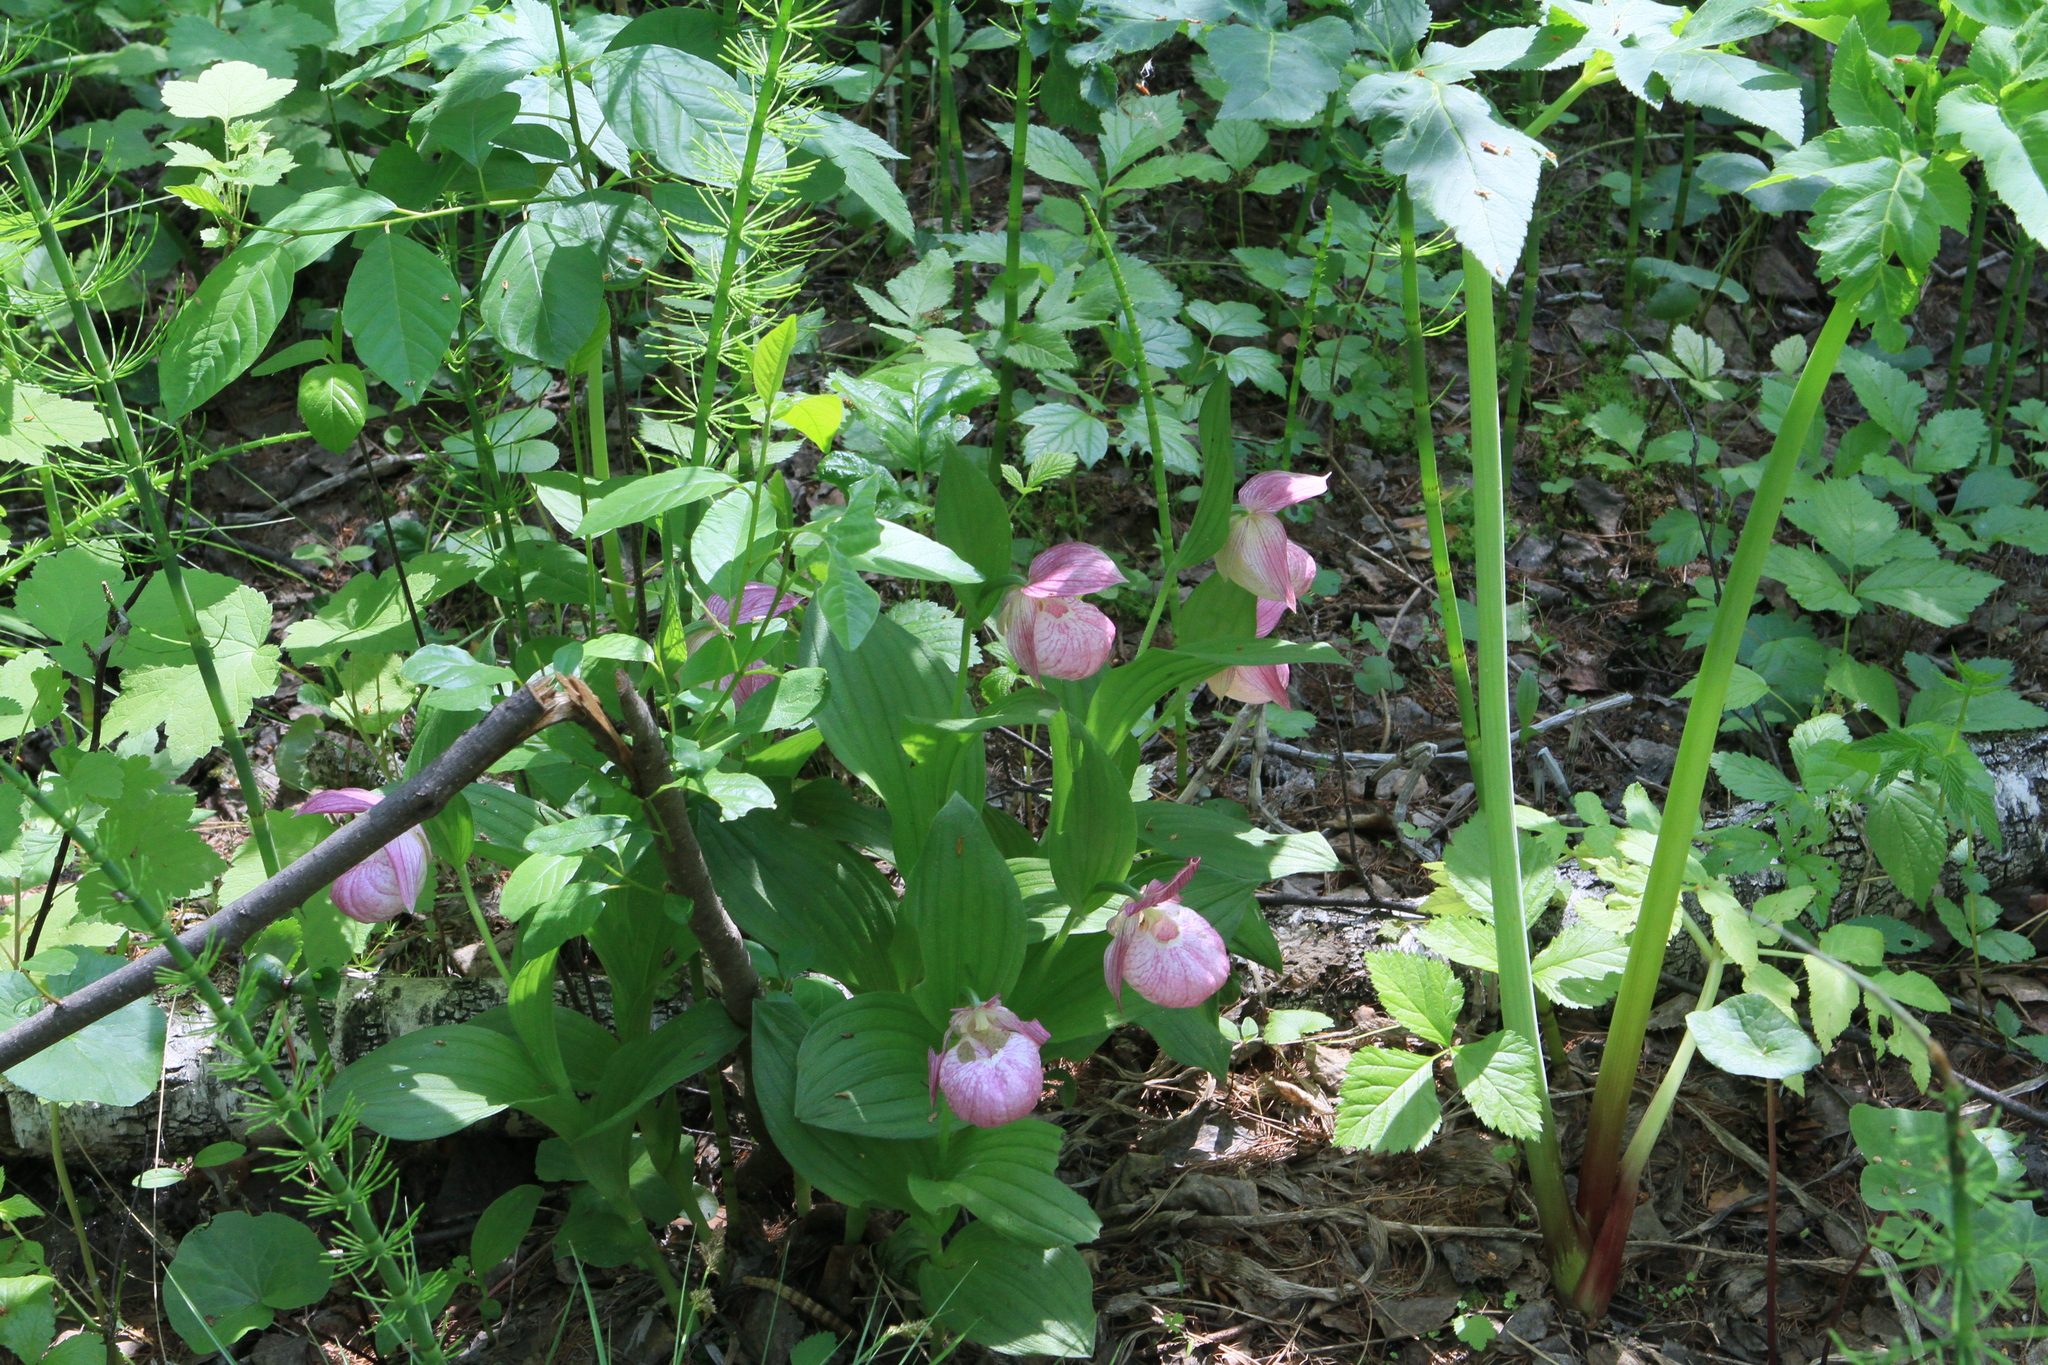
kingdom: Plantae
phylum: Tracheophyta
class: Liliopsida
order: Asparagales
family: Orchidaceae
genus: Cypripedium
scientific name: Cypripedium macranthos
